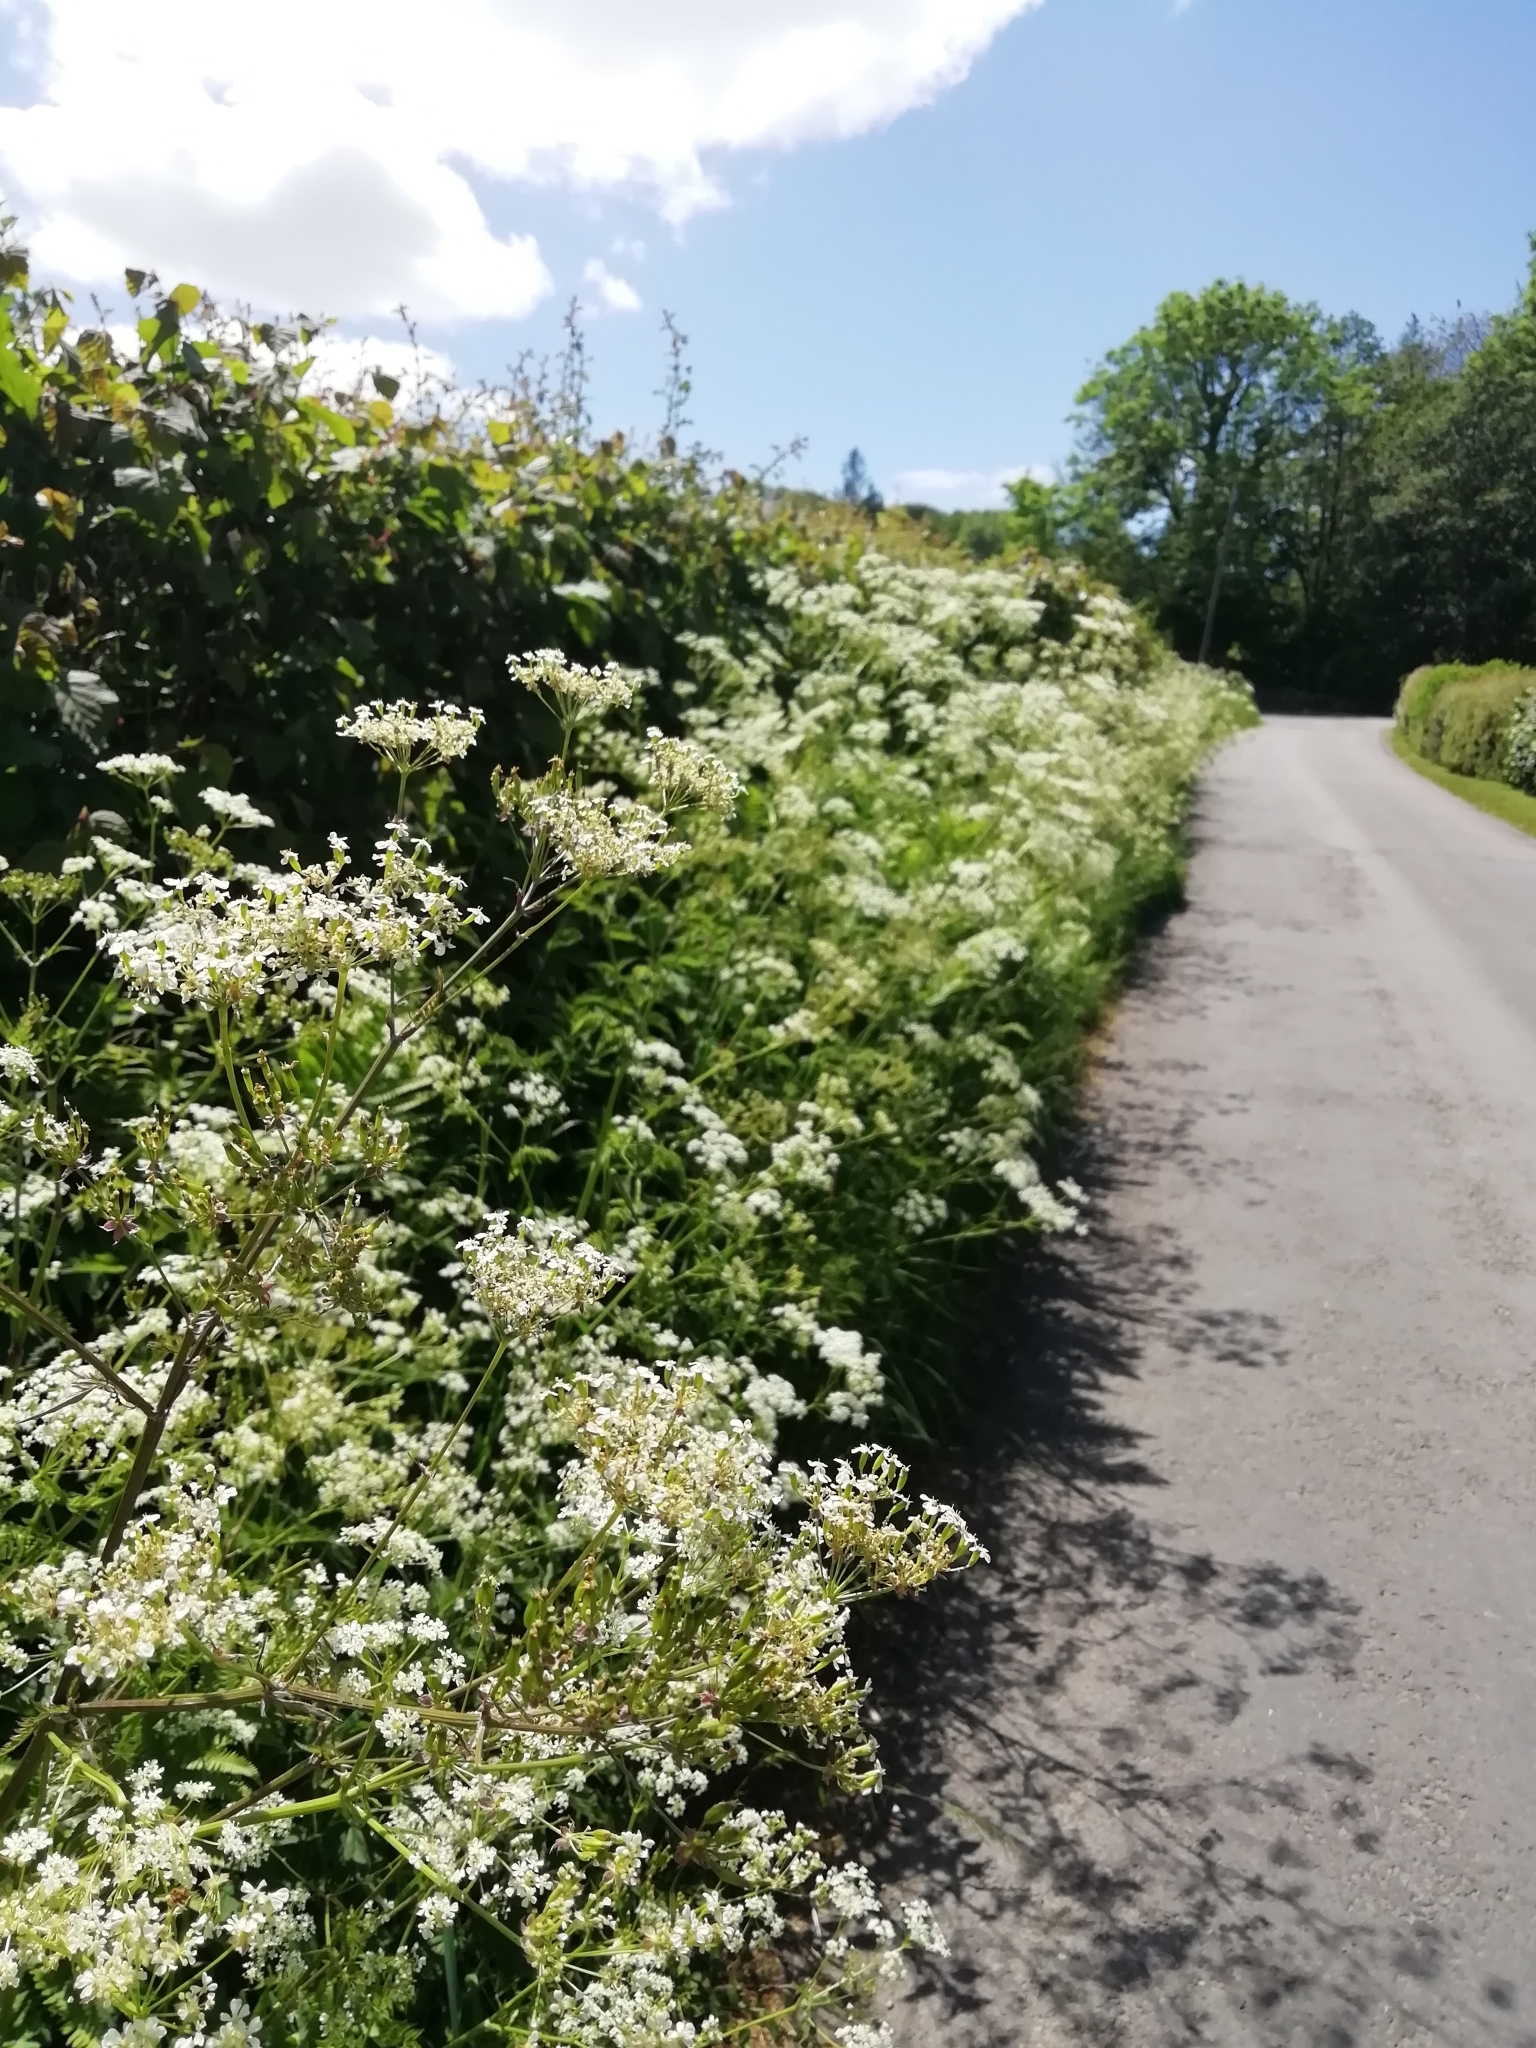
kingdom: Plantae
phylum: Tracheophyta
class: Magnoliopsida
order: Apiales
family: Apiaceae
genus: Anthriscus
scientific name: Anthriscus sylvestris
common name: Cow parsley
